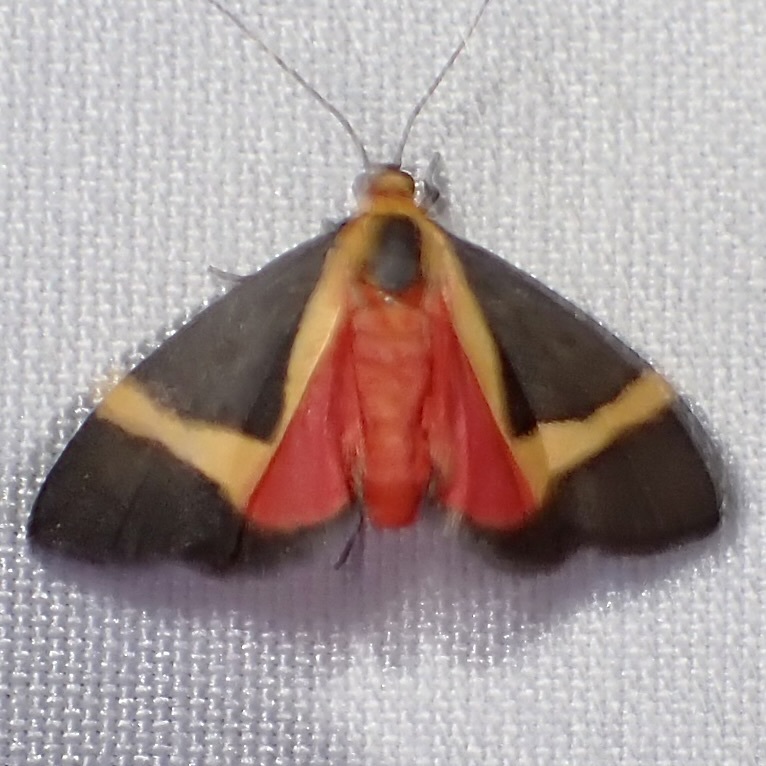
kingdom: Animalia
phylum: Arthropoda
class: Insecta
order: Lepidoptera
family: Erebidae
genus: Cisthene
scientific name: Cisthene tenuifascia
